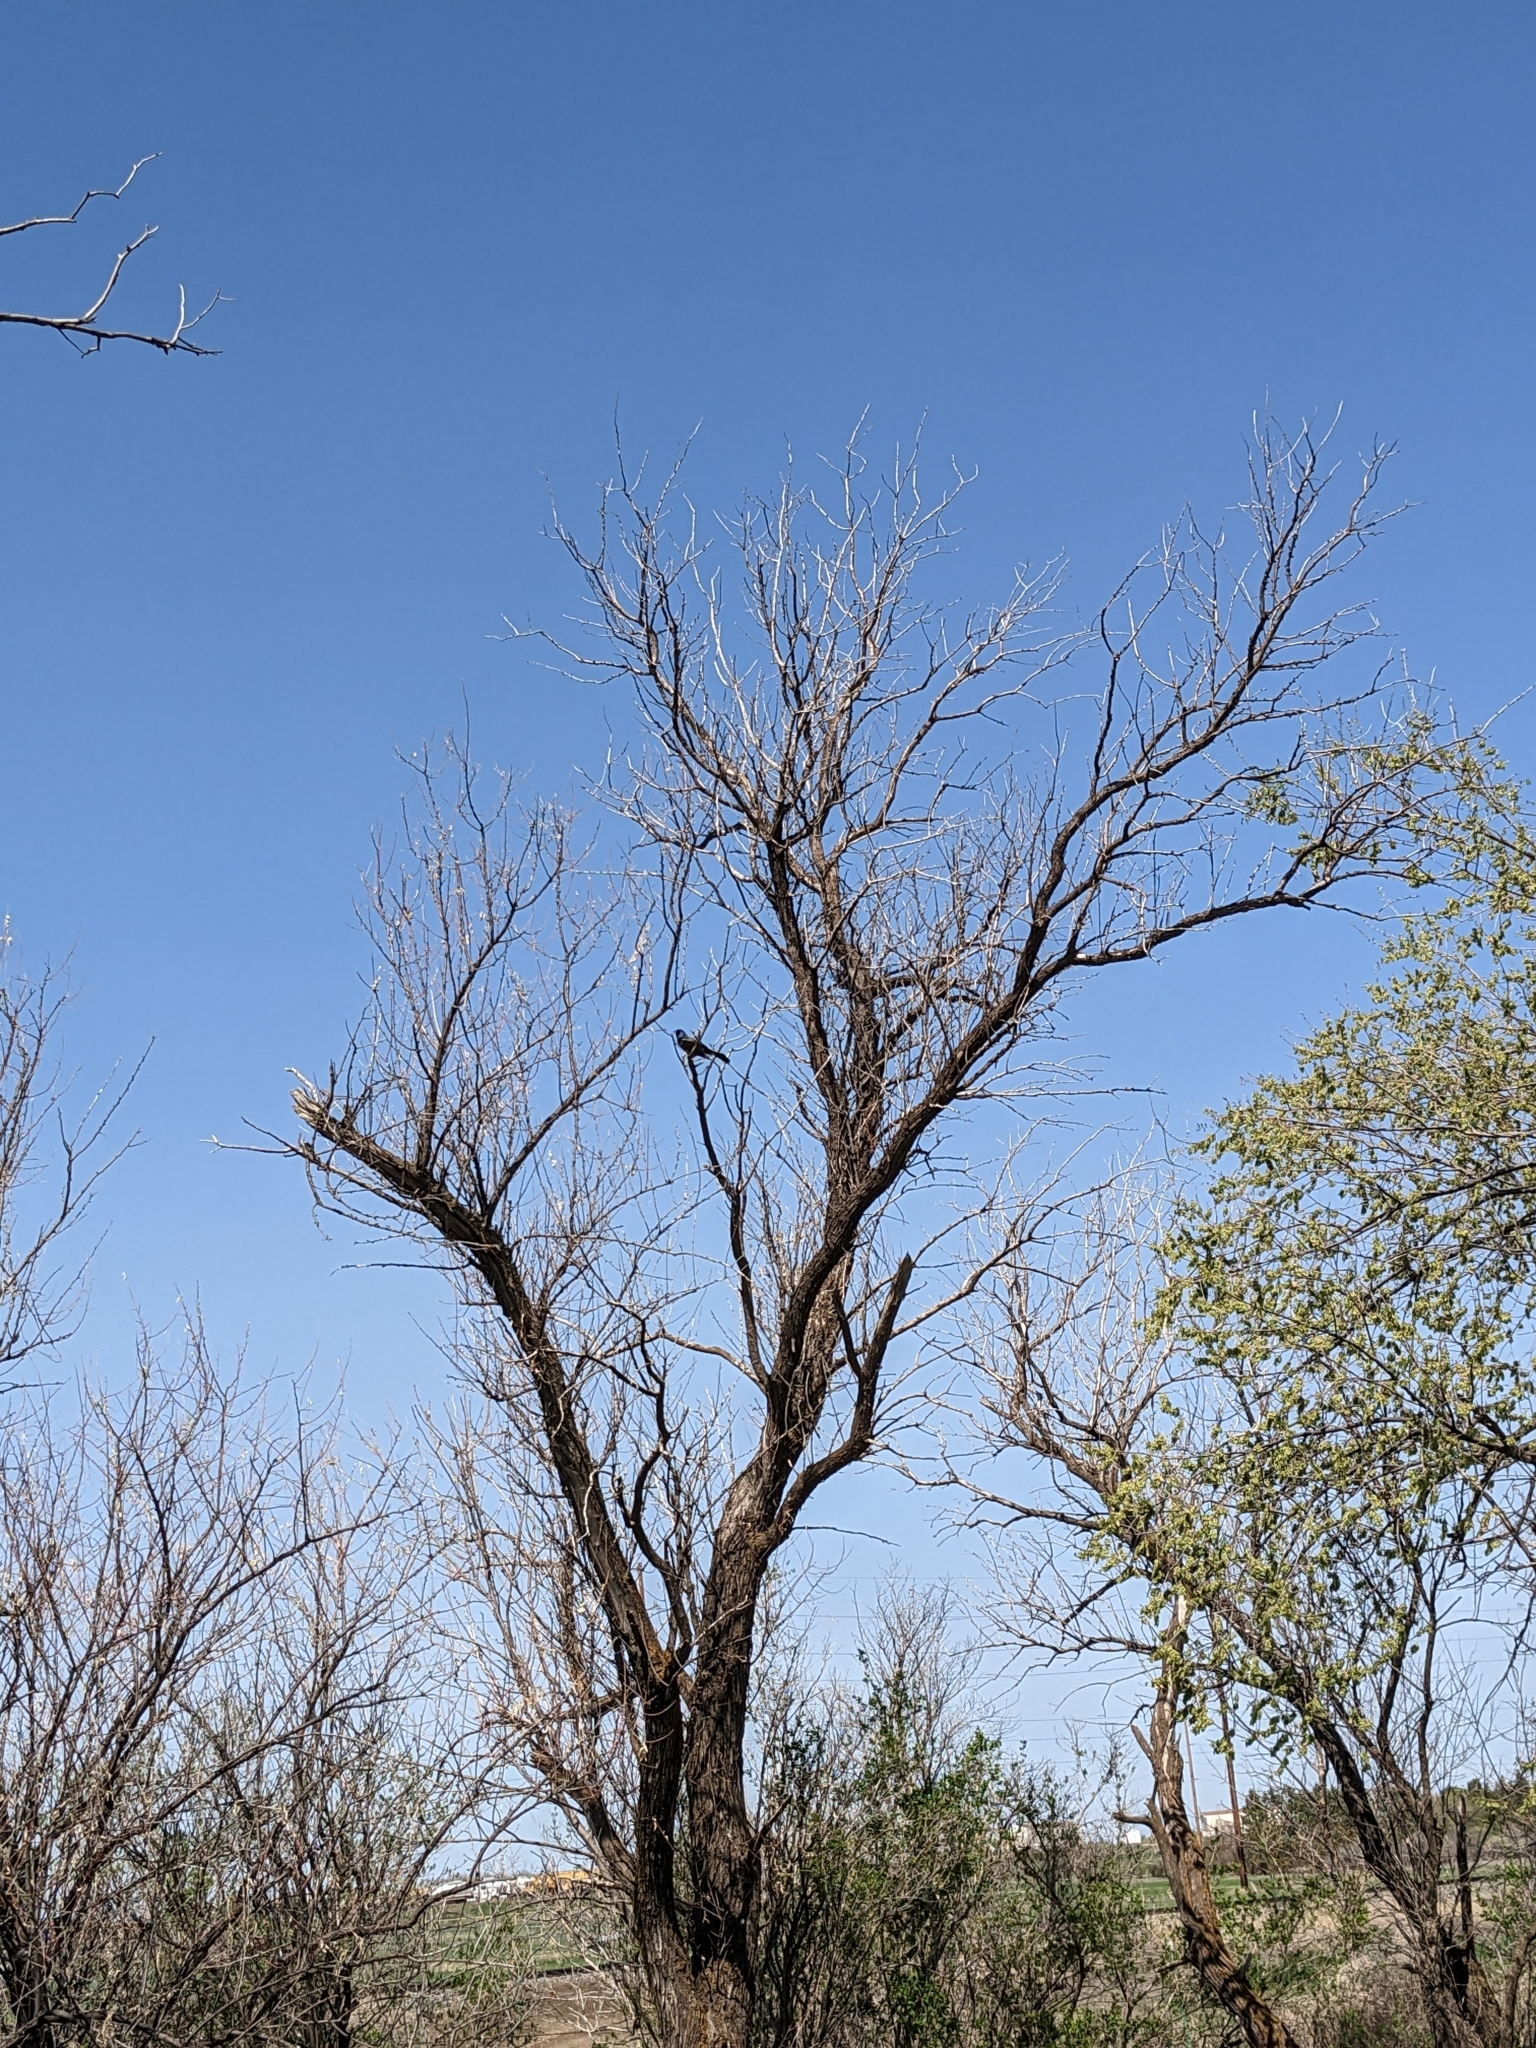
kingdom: Animalia
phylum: Chordata
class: Aves
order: Passeriformes
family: Icteridae
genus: Quiscalus
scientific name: Quiscalus quiscula
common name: Common grackle
